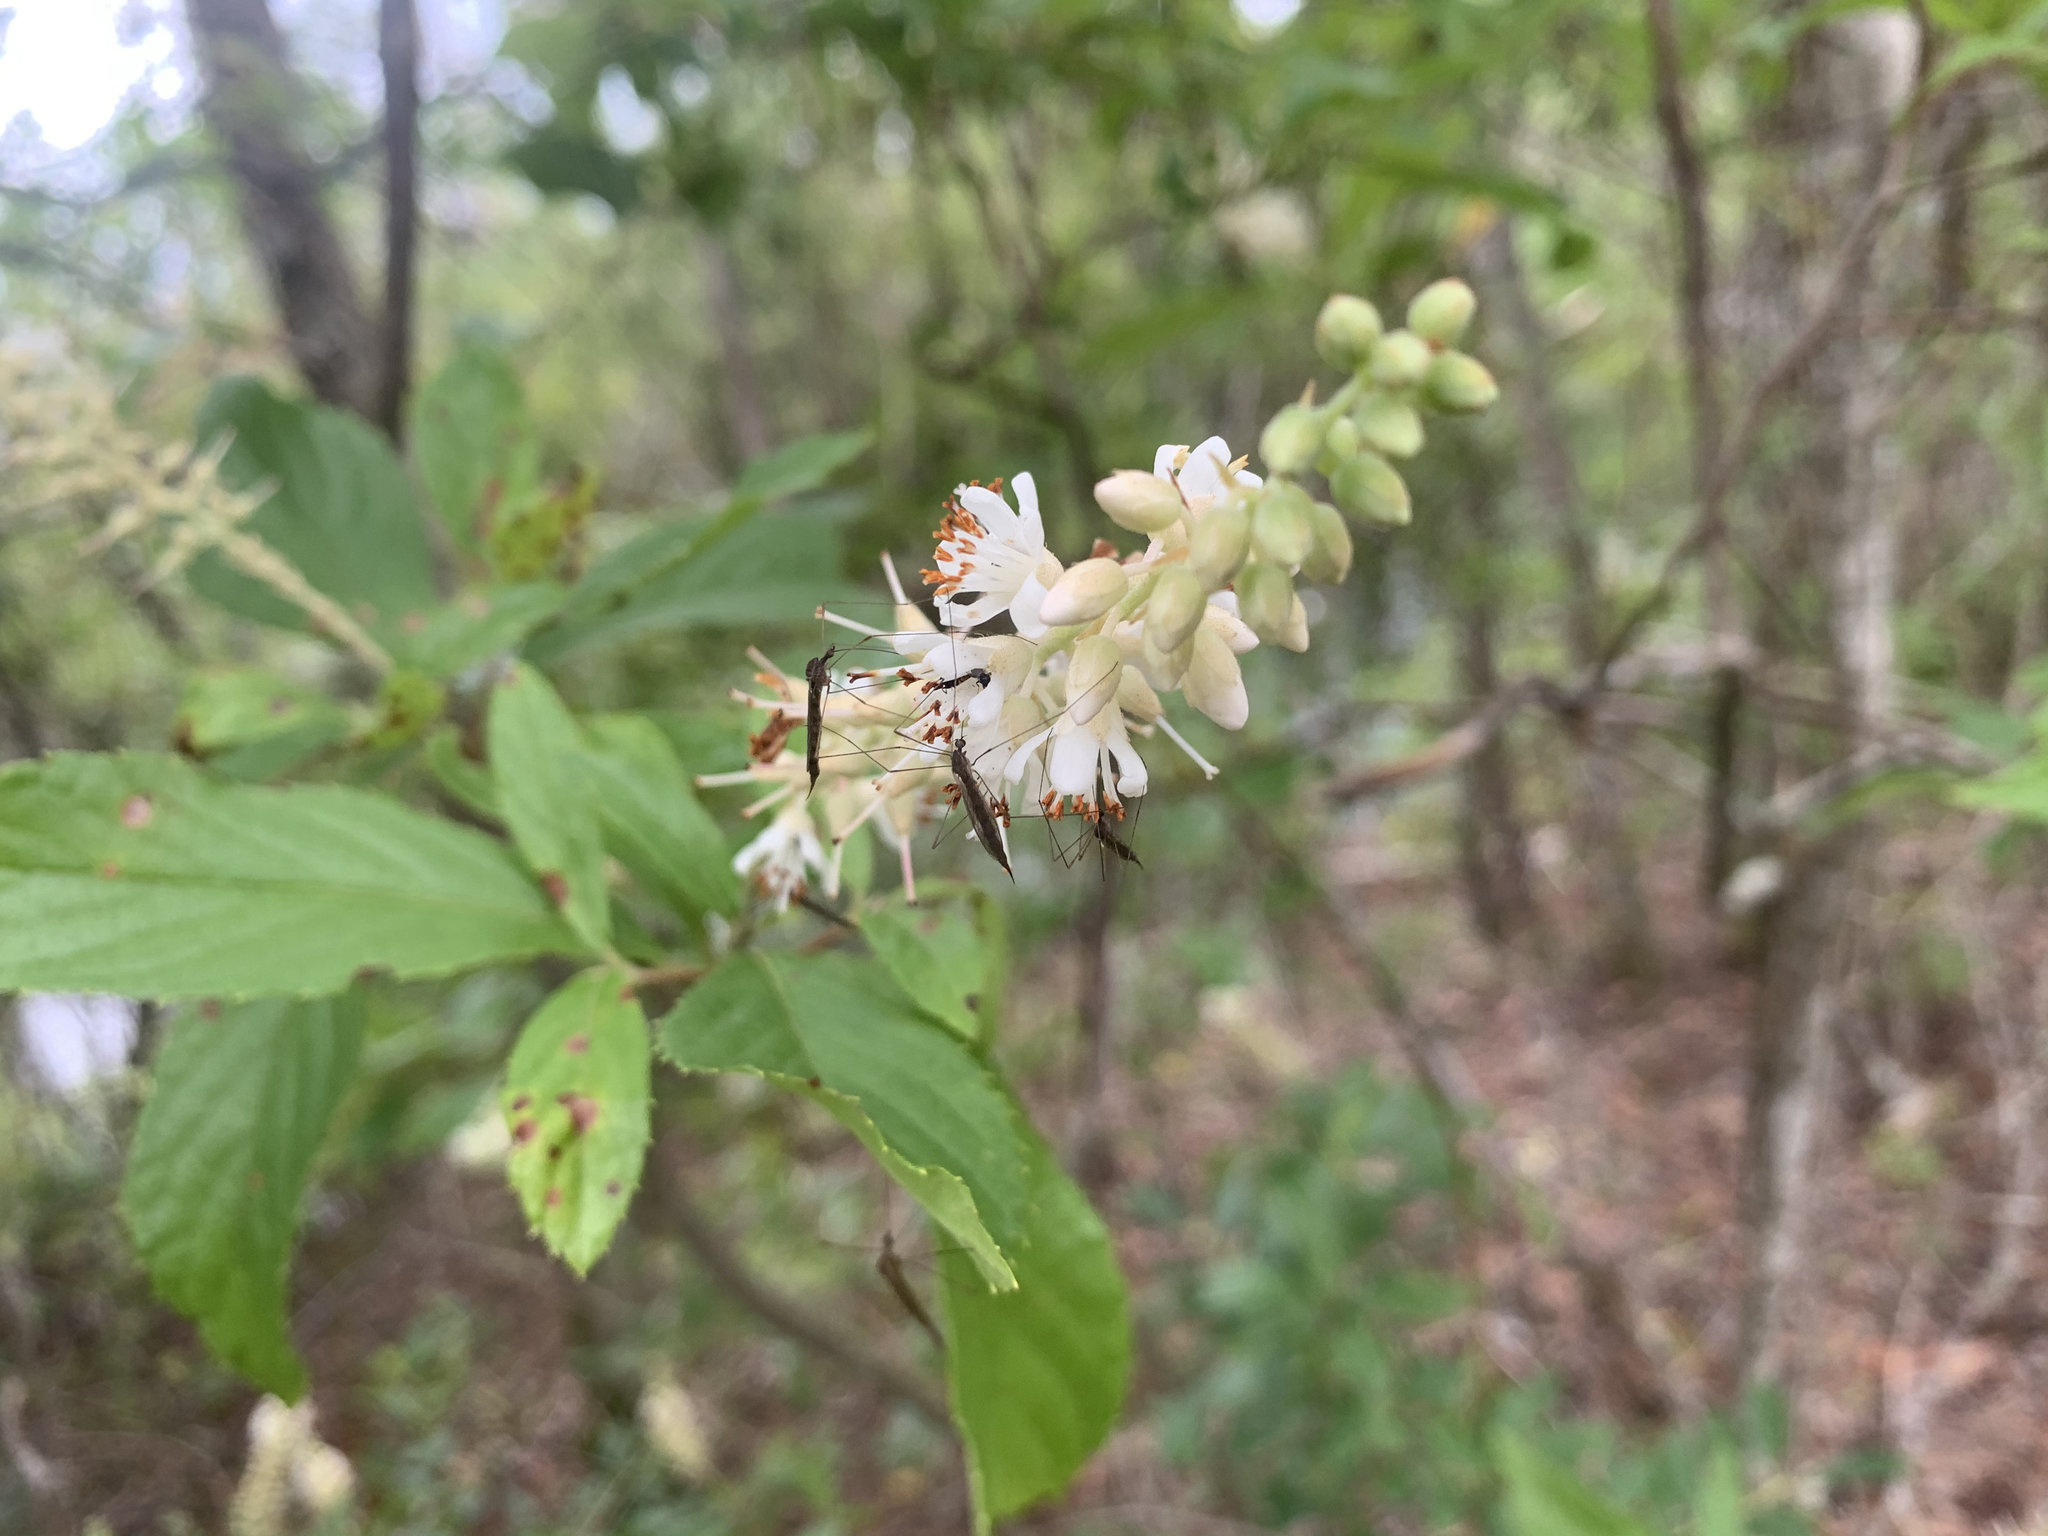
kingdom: Plantae
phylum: Tracheophyta
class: Magnoliopsida
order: Ericales
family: Clethraceae
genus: Clethra
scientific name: Clethra alnifolia
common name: Sweet pepperbush
